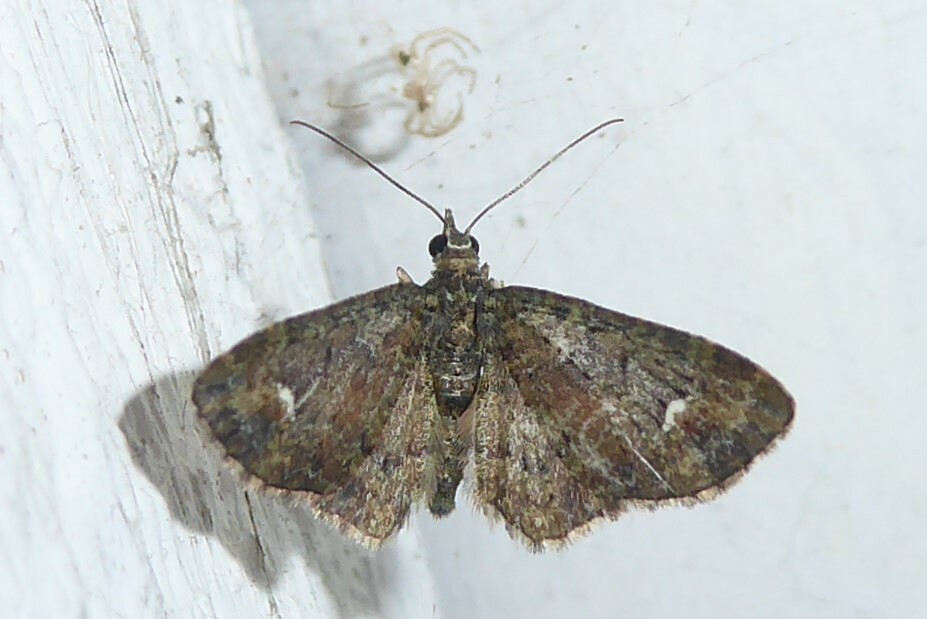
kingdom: Animalia
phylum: Arthropoda
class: Insecta
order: Lepidoptera
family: Geometridae
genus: Pasiphilodes
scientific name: Pasiphilodes testulata
